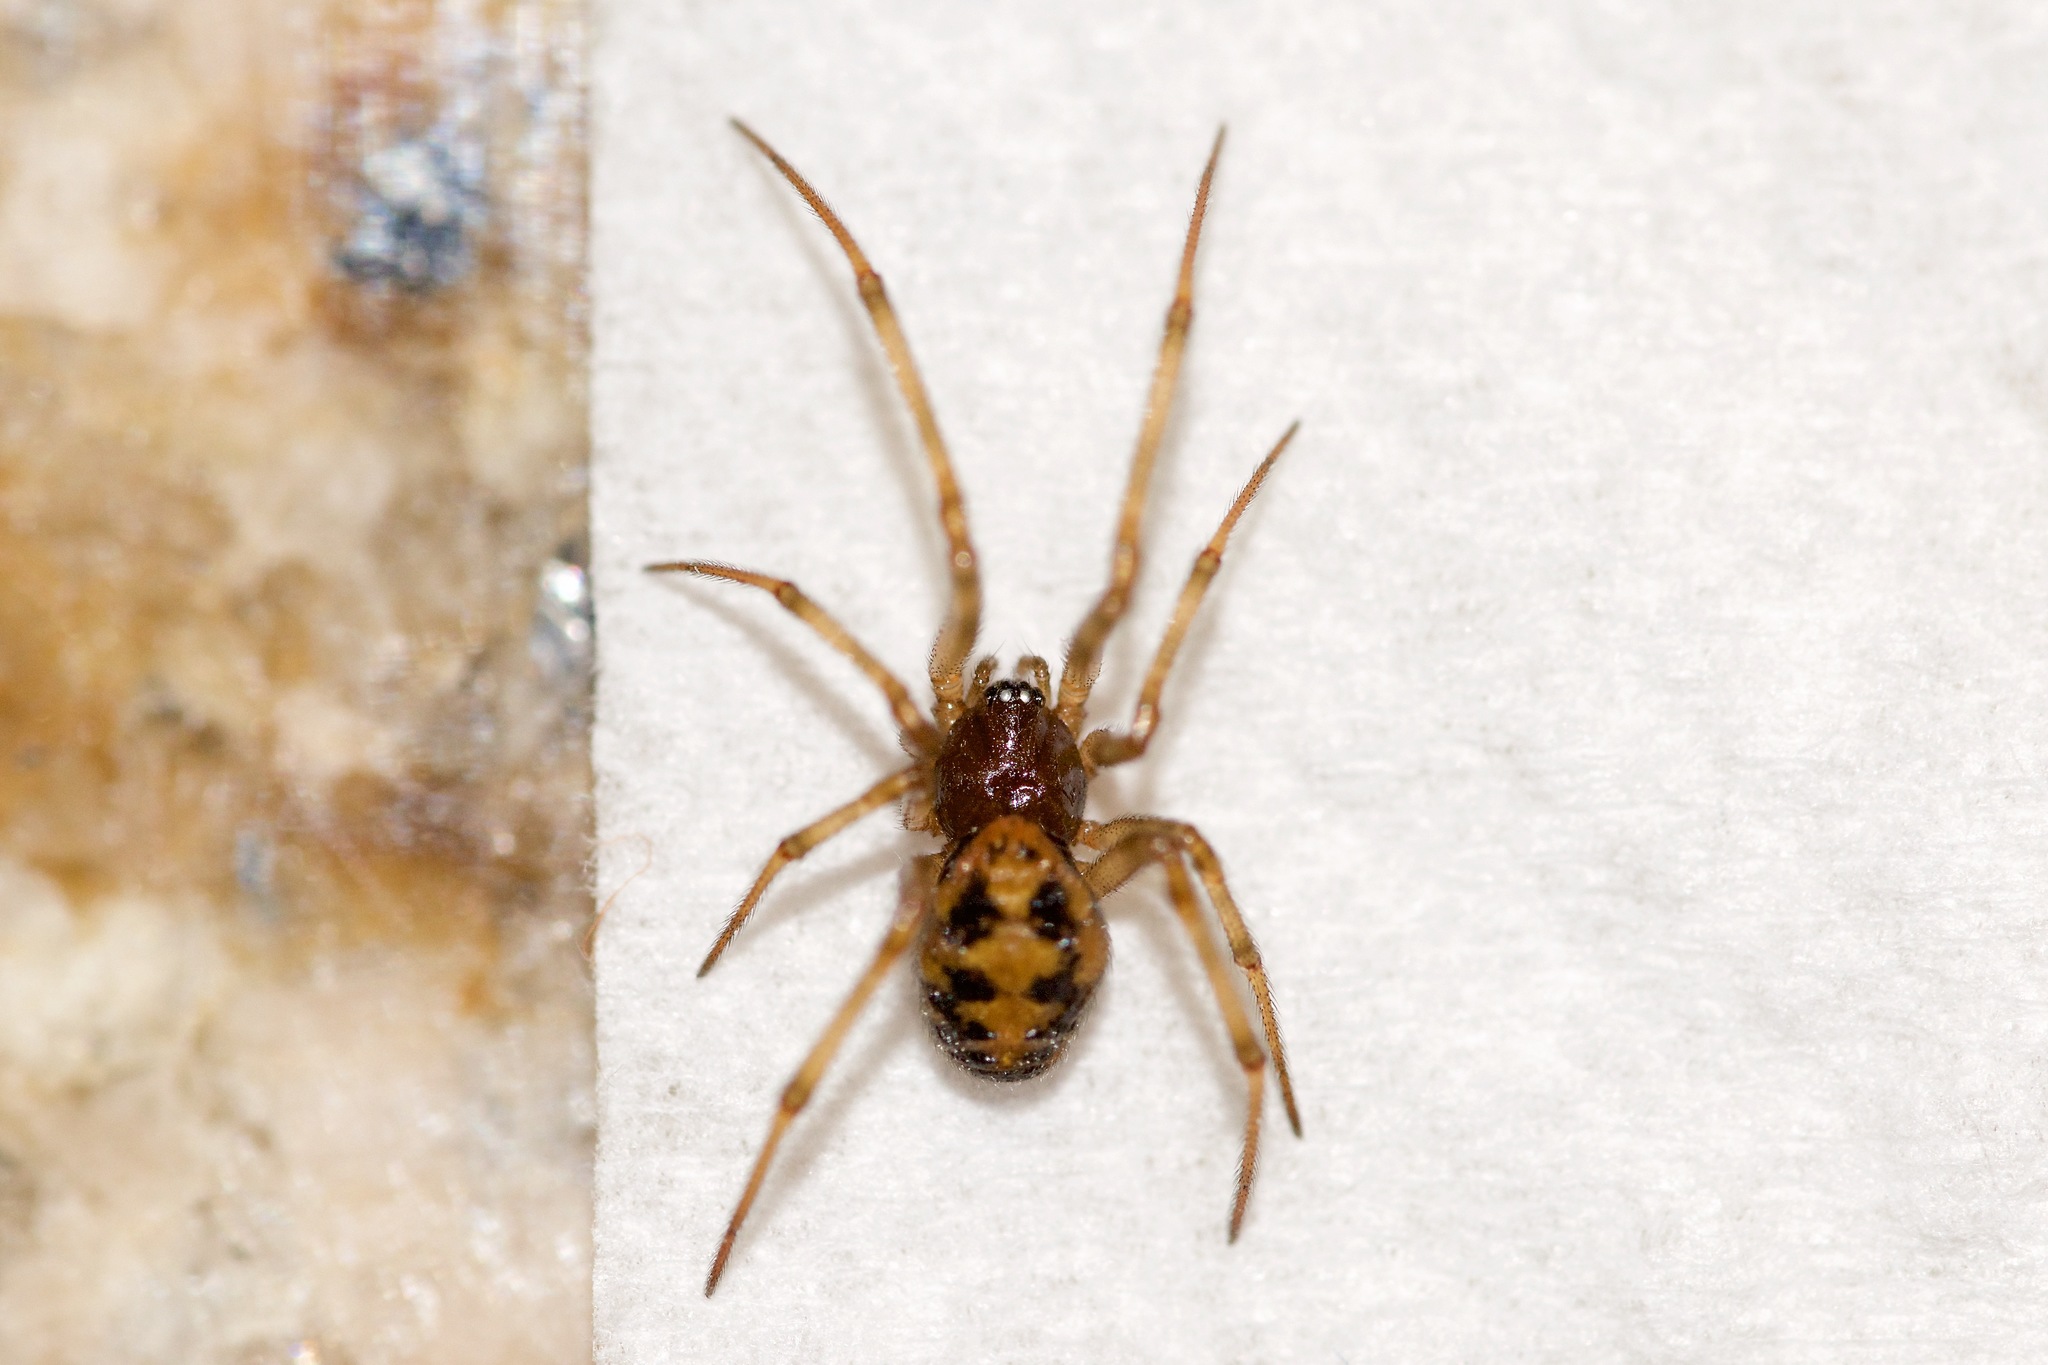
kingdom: Animalia
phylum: Arthropoda
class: Arachnida
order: Araneae
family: Theridiidae
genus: Steatoda
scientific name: Steatoda triangulosa
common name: Triangulate bud spider
